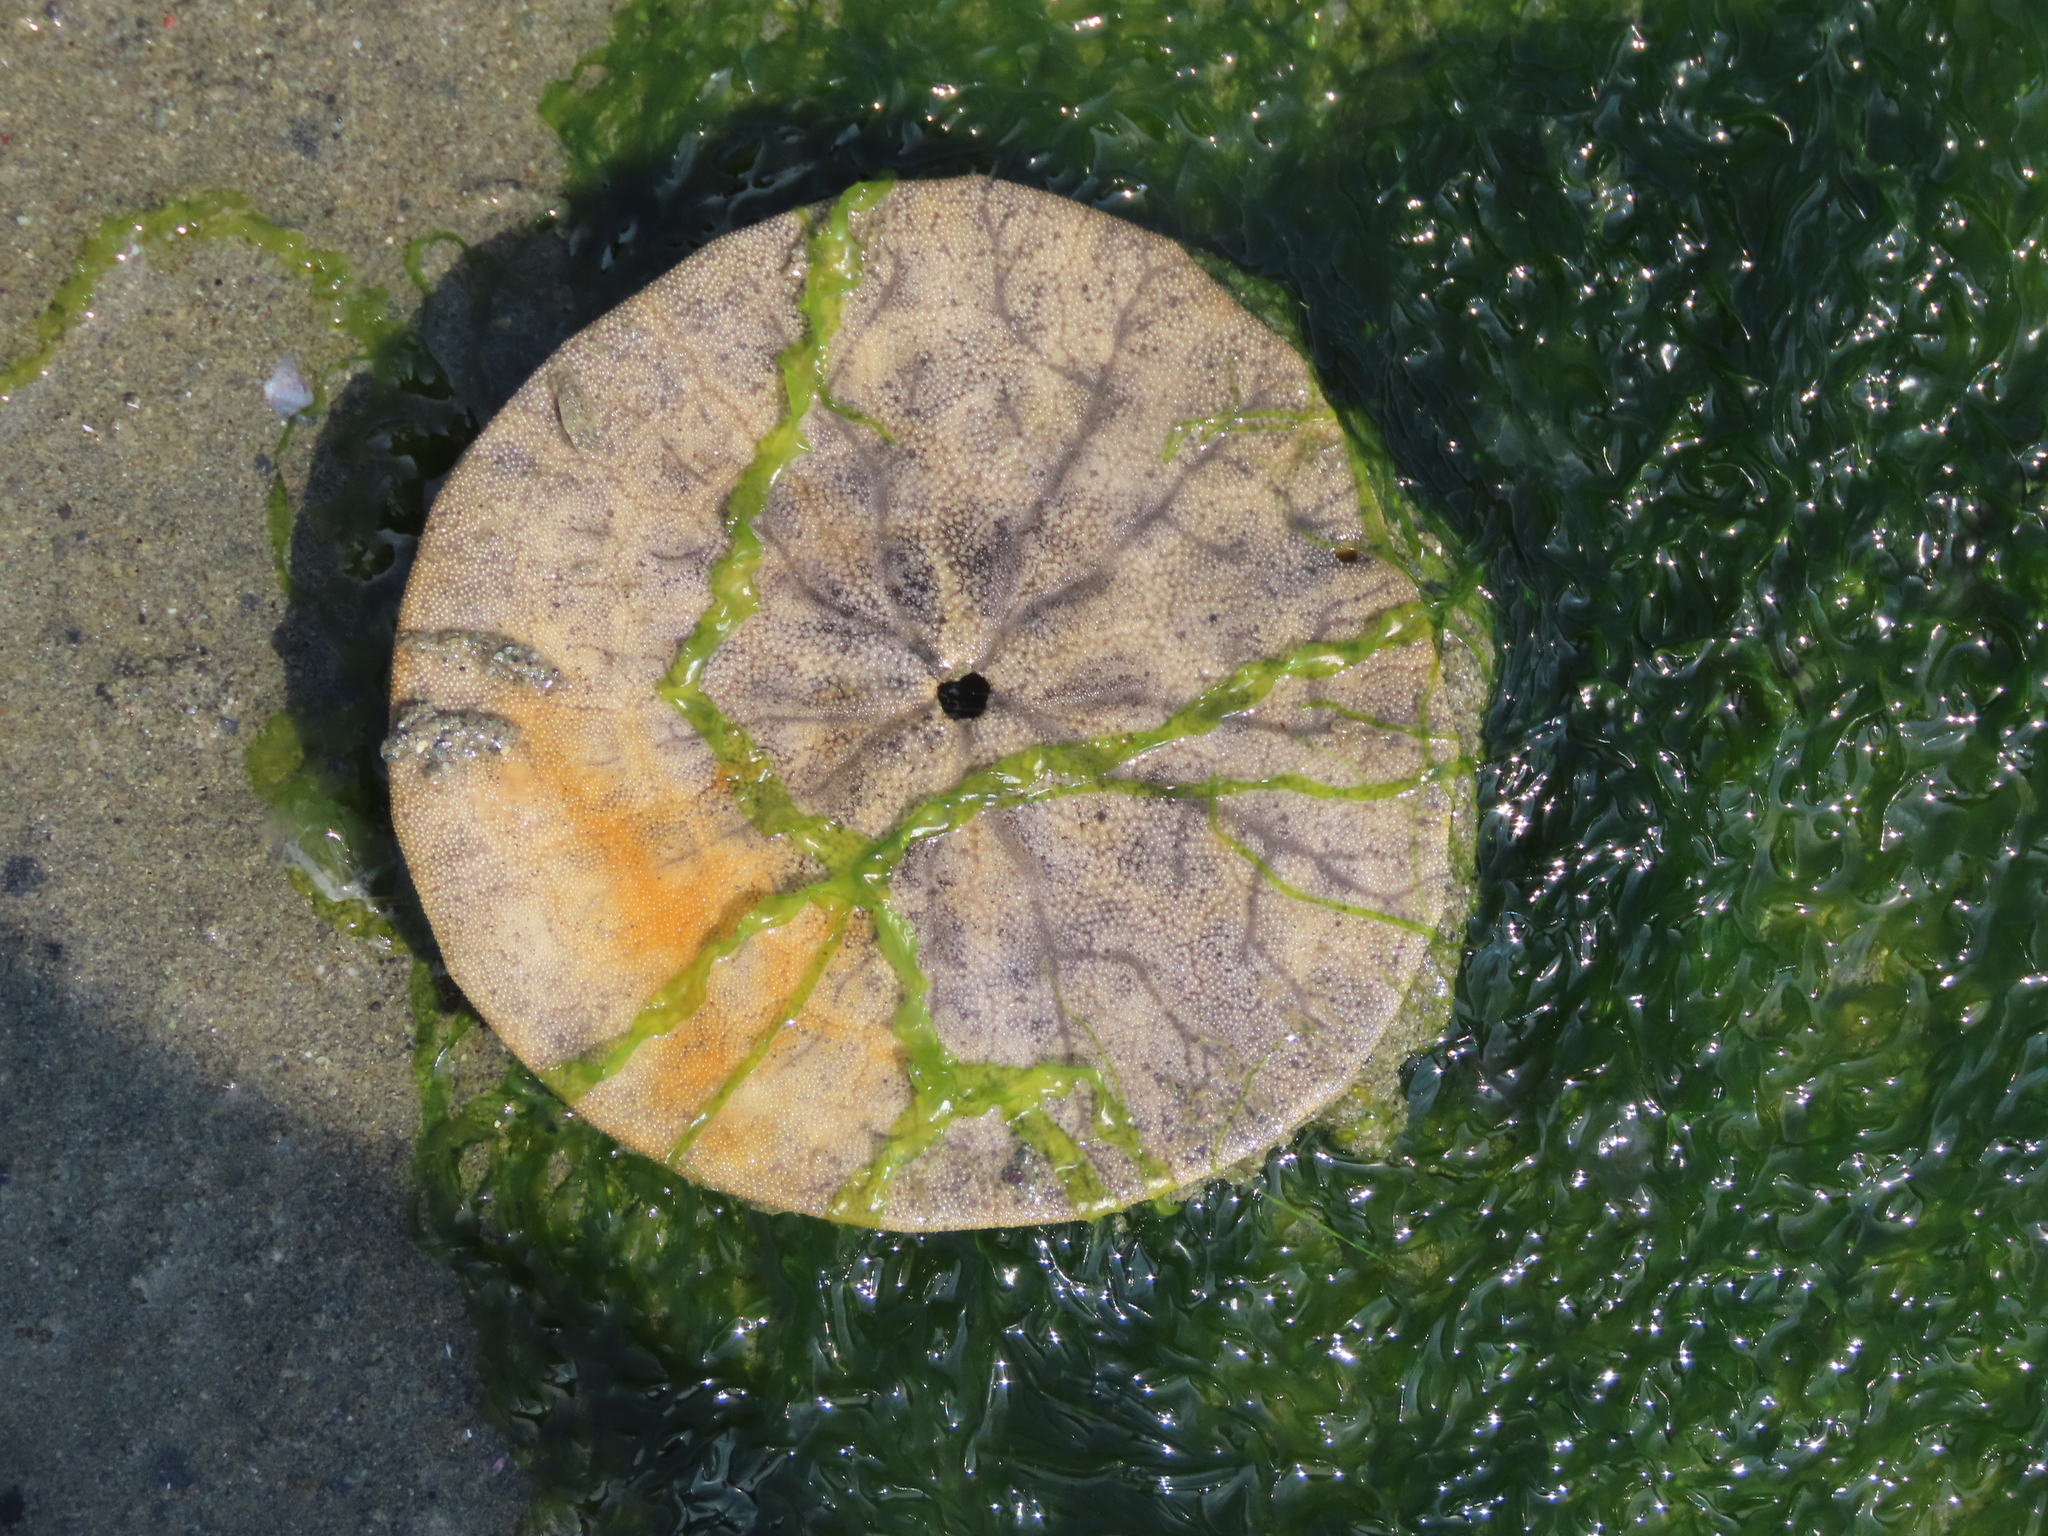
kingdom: Animalia
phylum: Echinodermata
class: Echinoidea
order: Echinolampadacea
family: Dendrasteridae
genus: Dendraster
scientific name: Dendraster excentricus
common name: Eccentric sand dollar sea urchin
